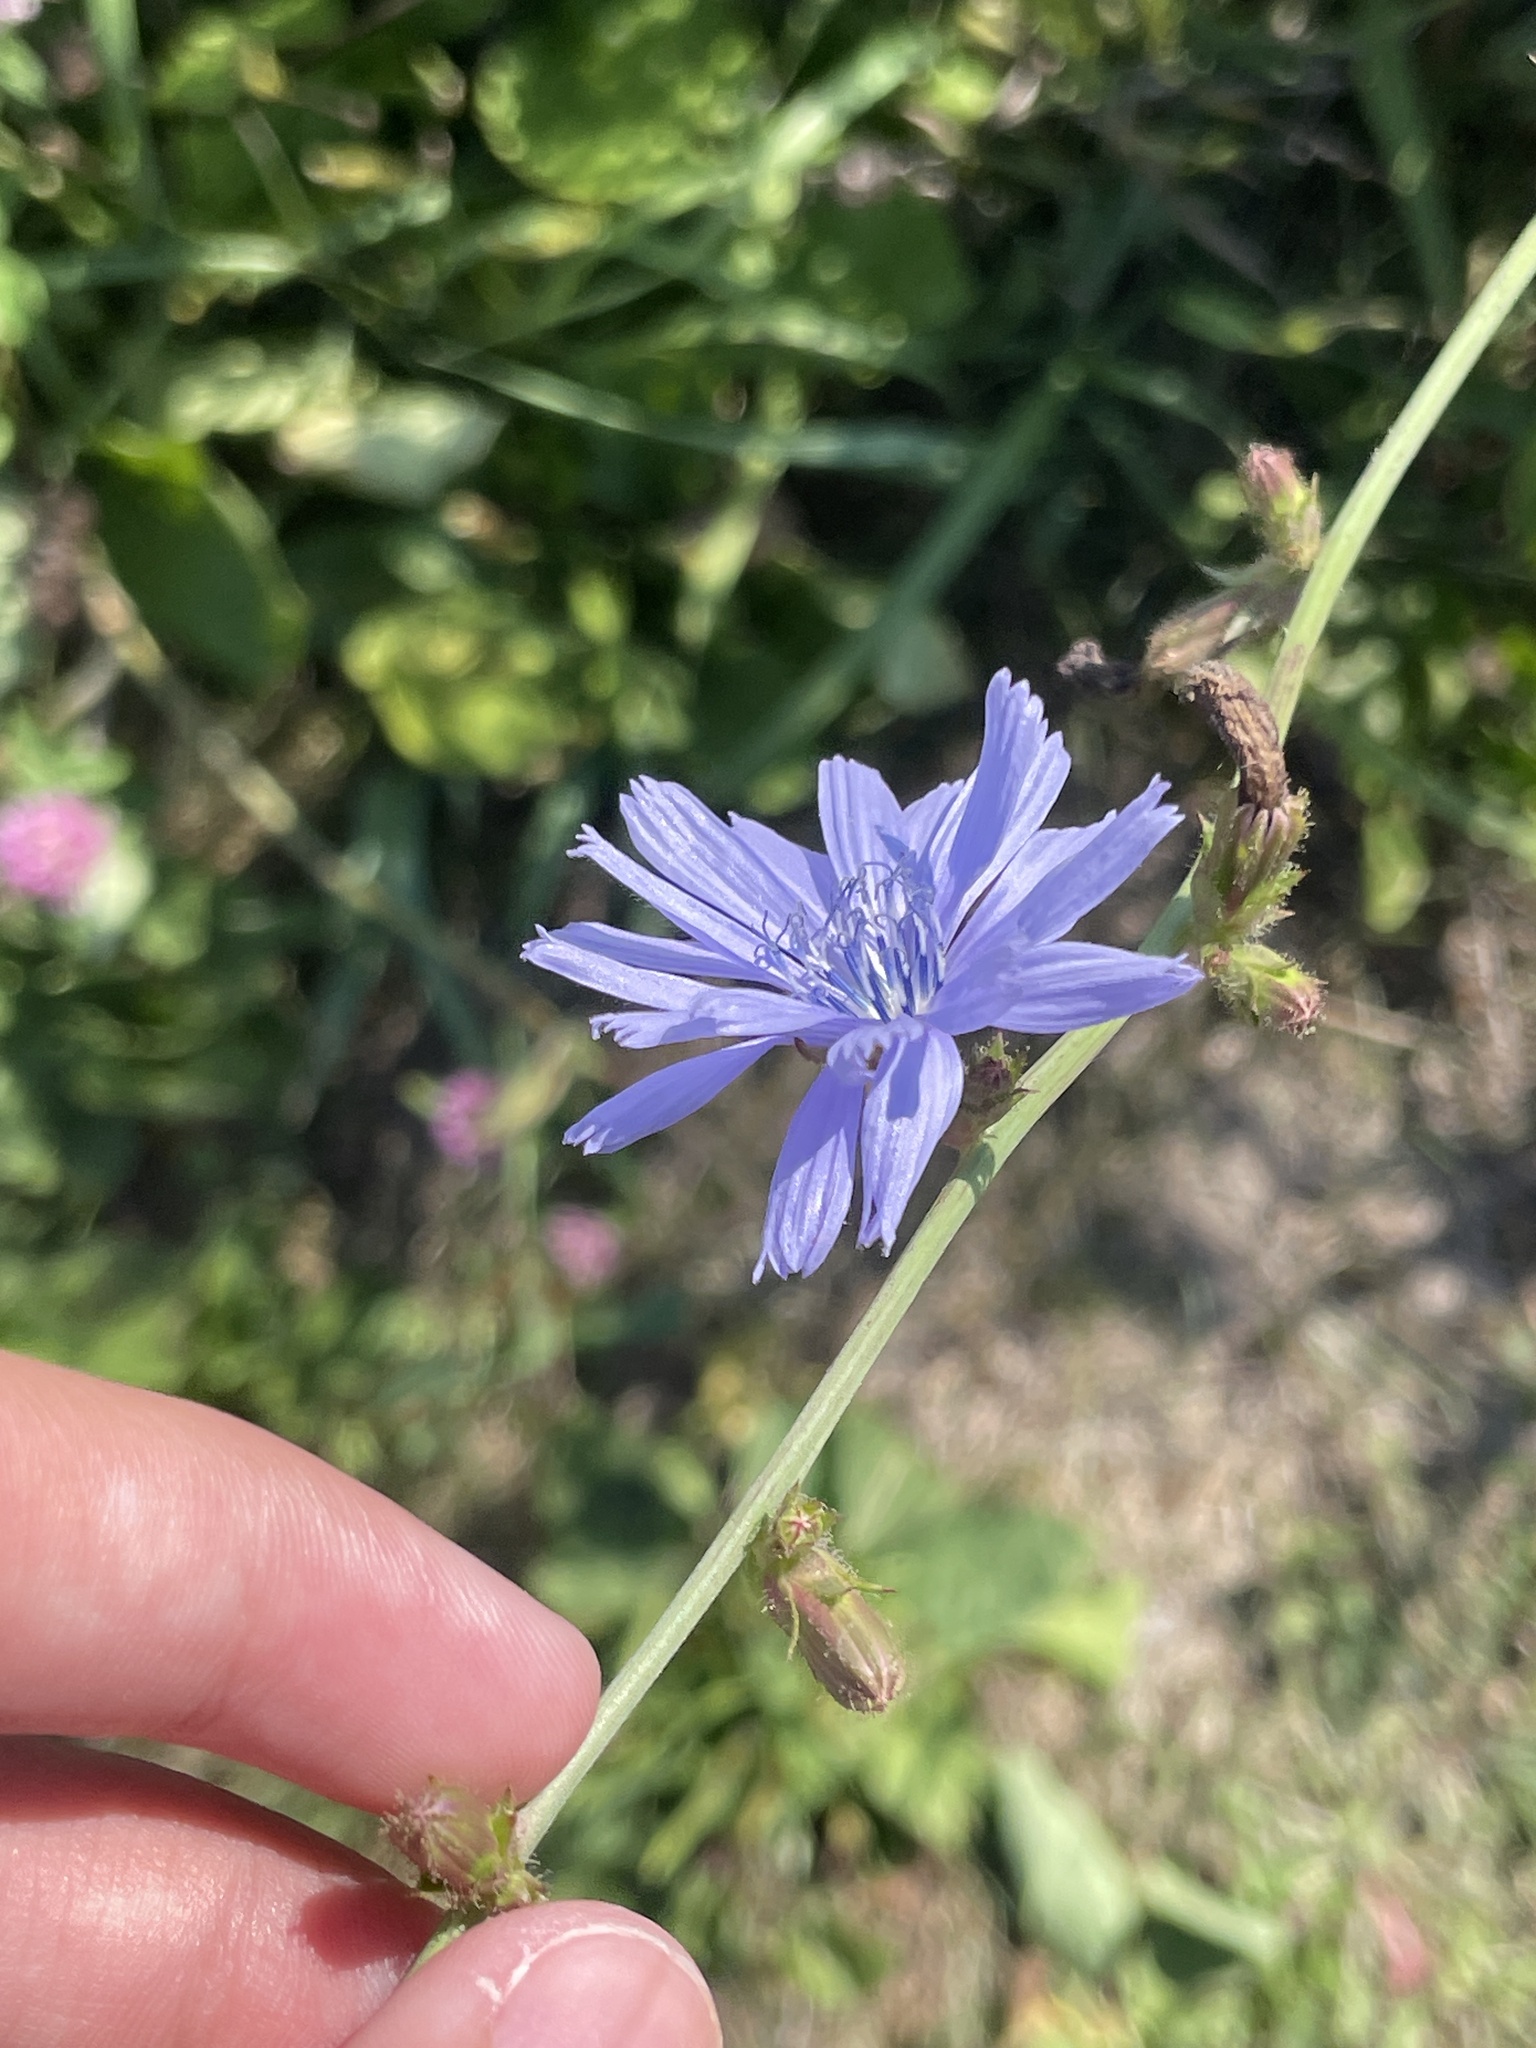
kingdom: Plantae
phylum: Tracheophyta
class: Magnoliopsida
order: Asterales
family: Asteraceae
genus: Cichorium
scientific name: Cichorium intybus
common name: Chicory
